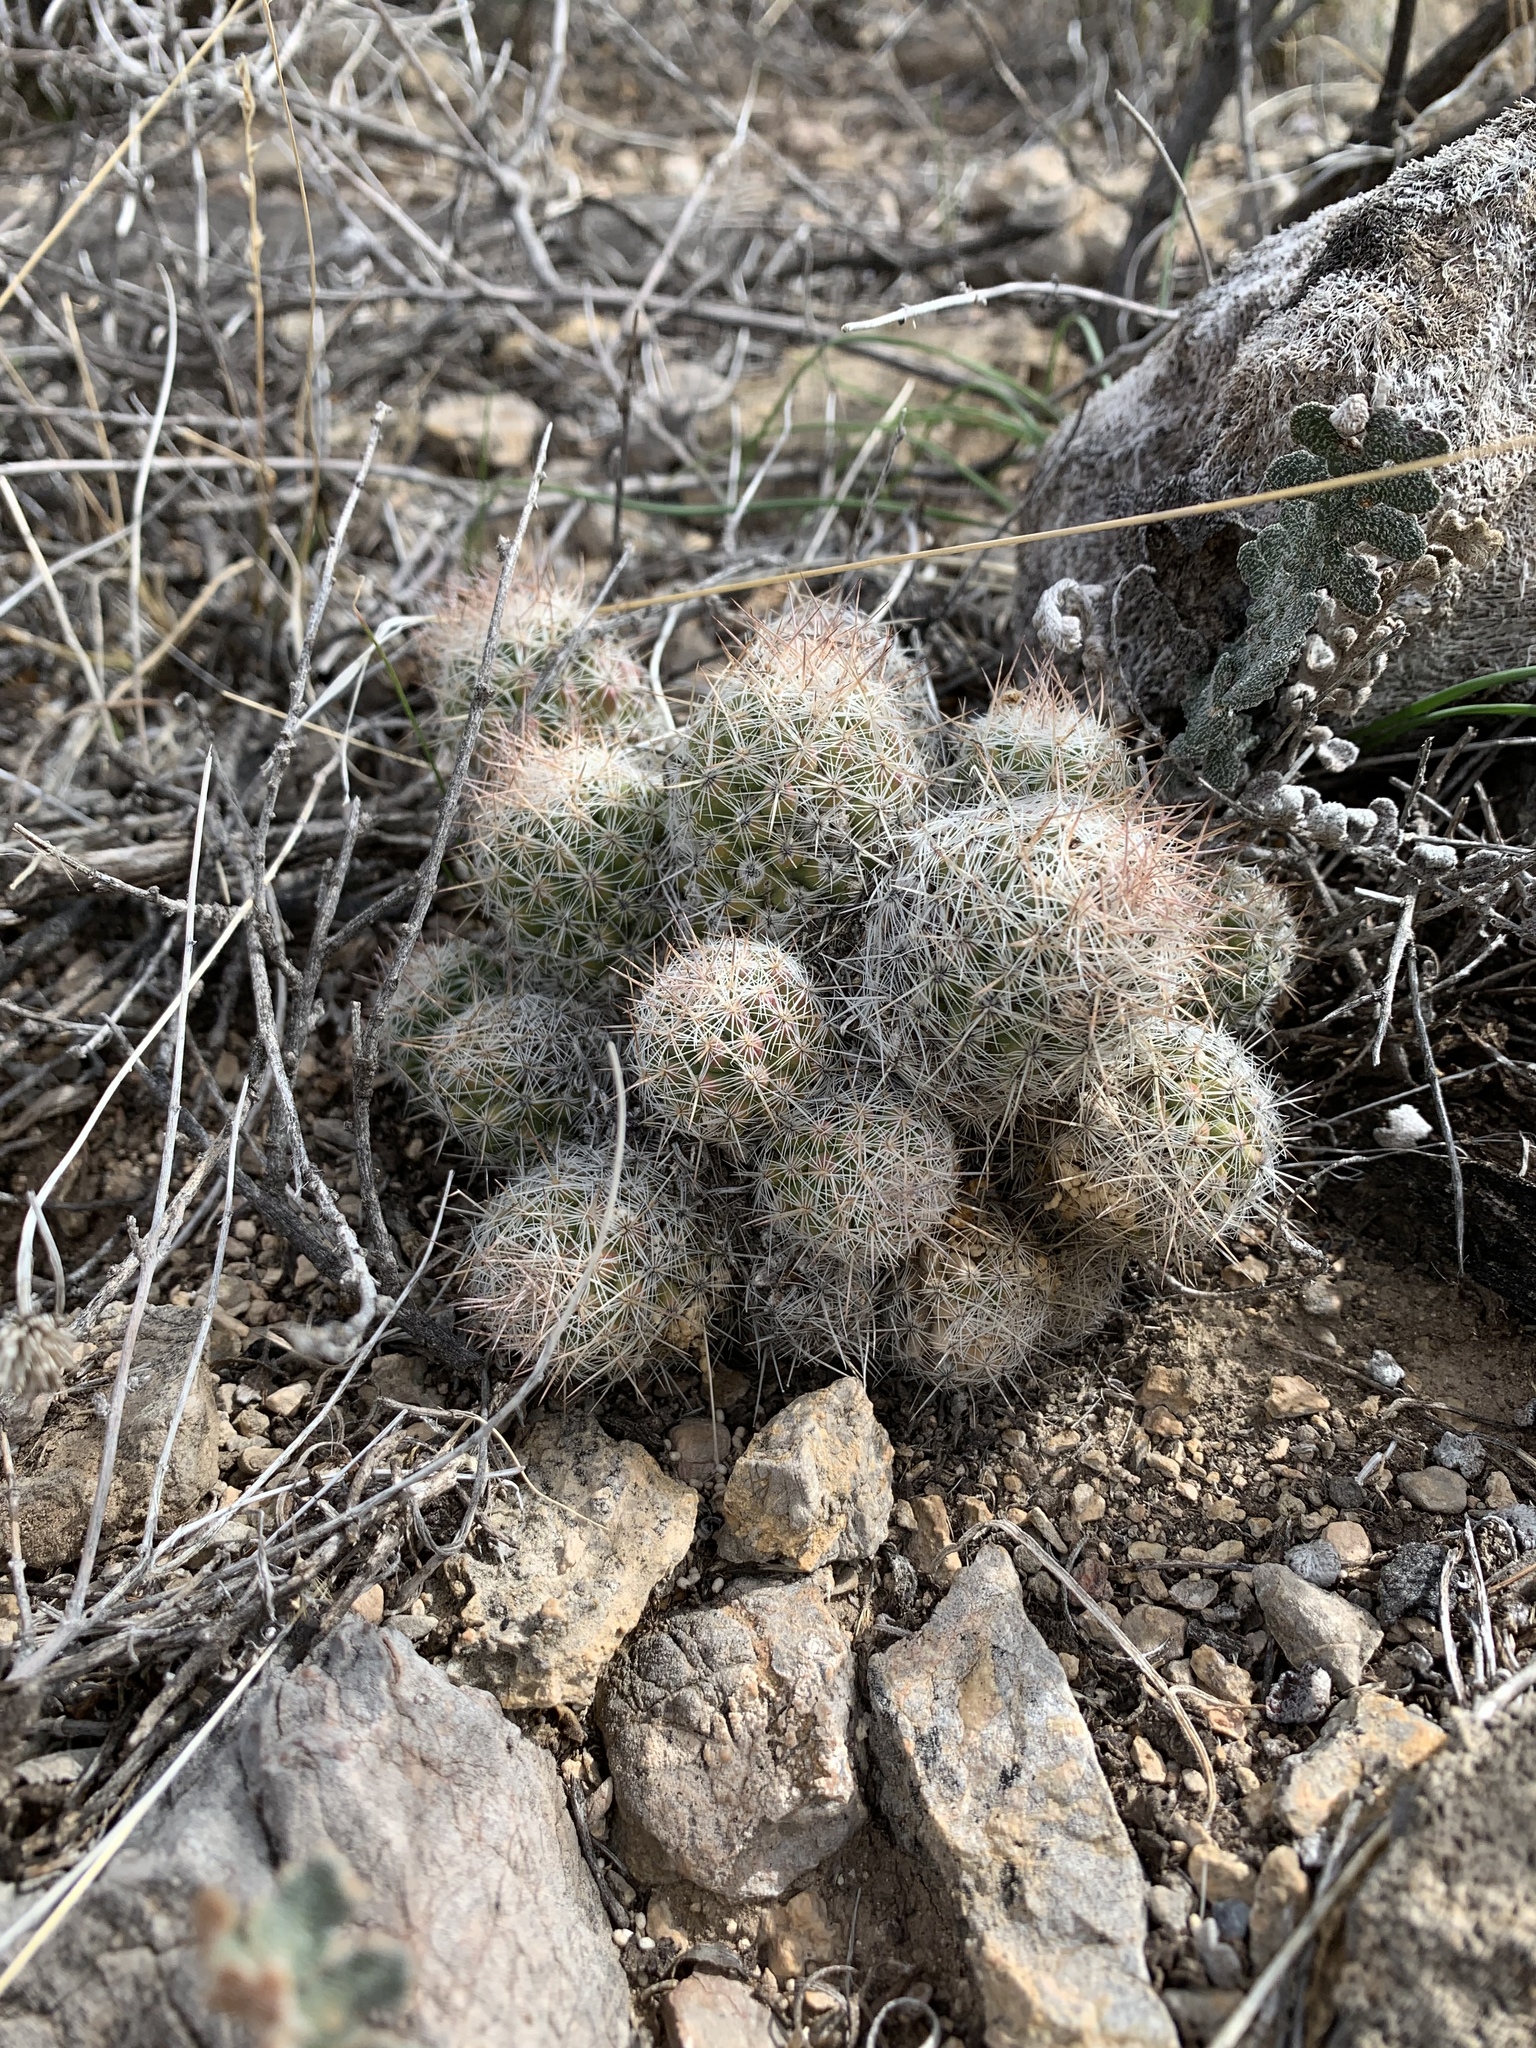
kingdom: Plantae
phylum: Tracheophyta
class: Magnoliopsida
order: Caryophyllales
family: Cactaceae
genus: Pelecyphora
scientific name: Pelecyphora tuberculosa
